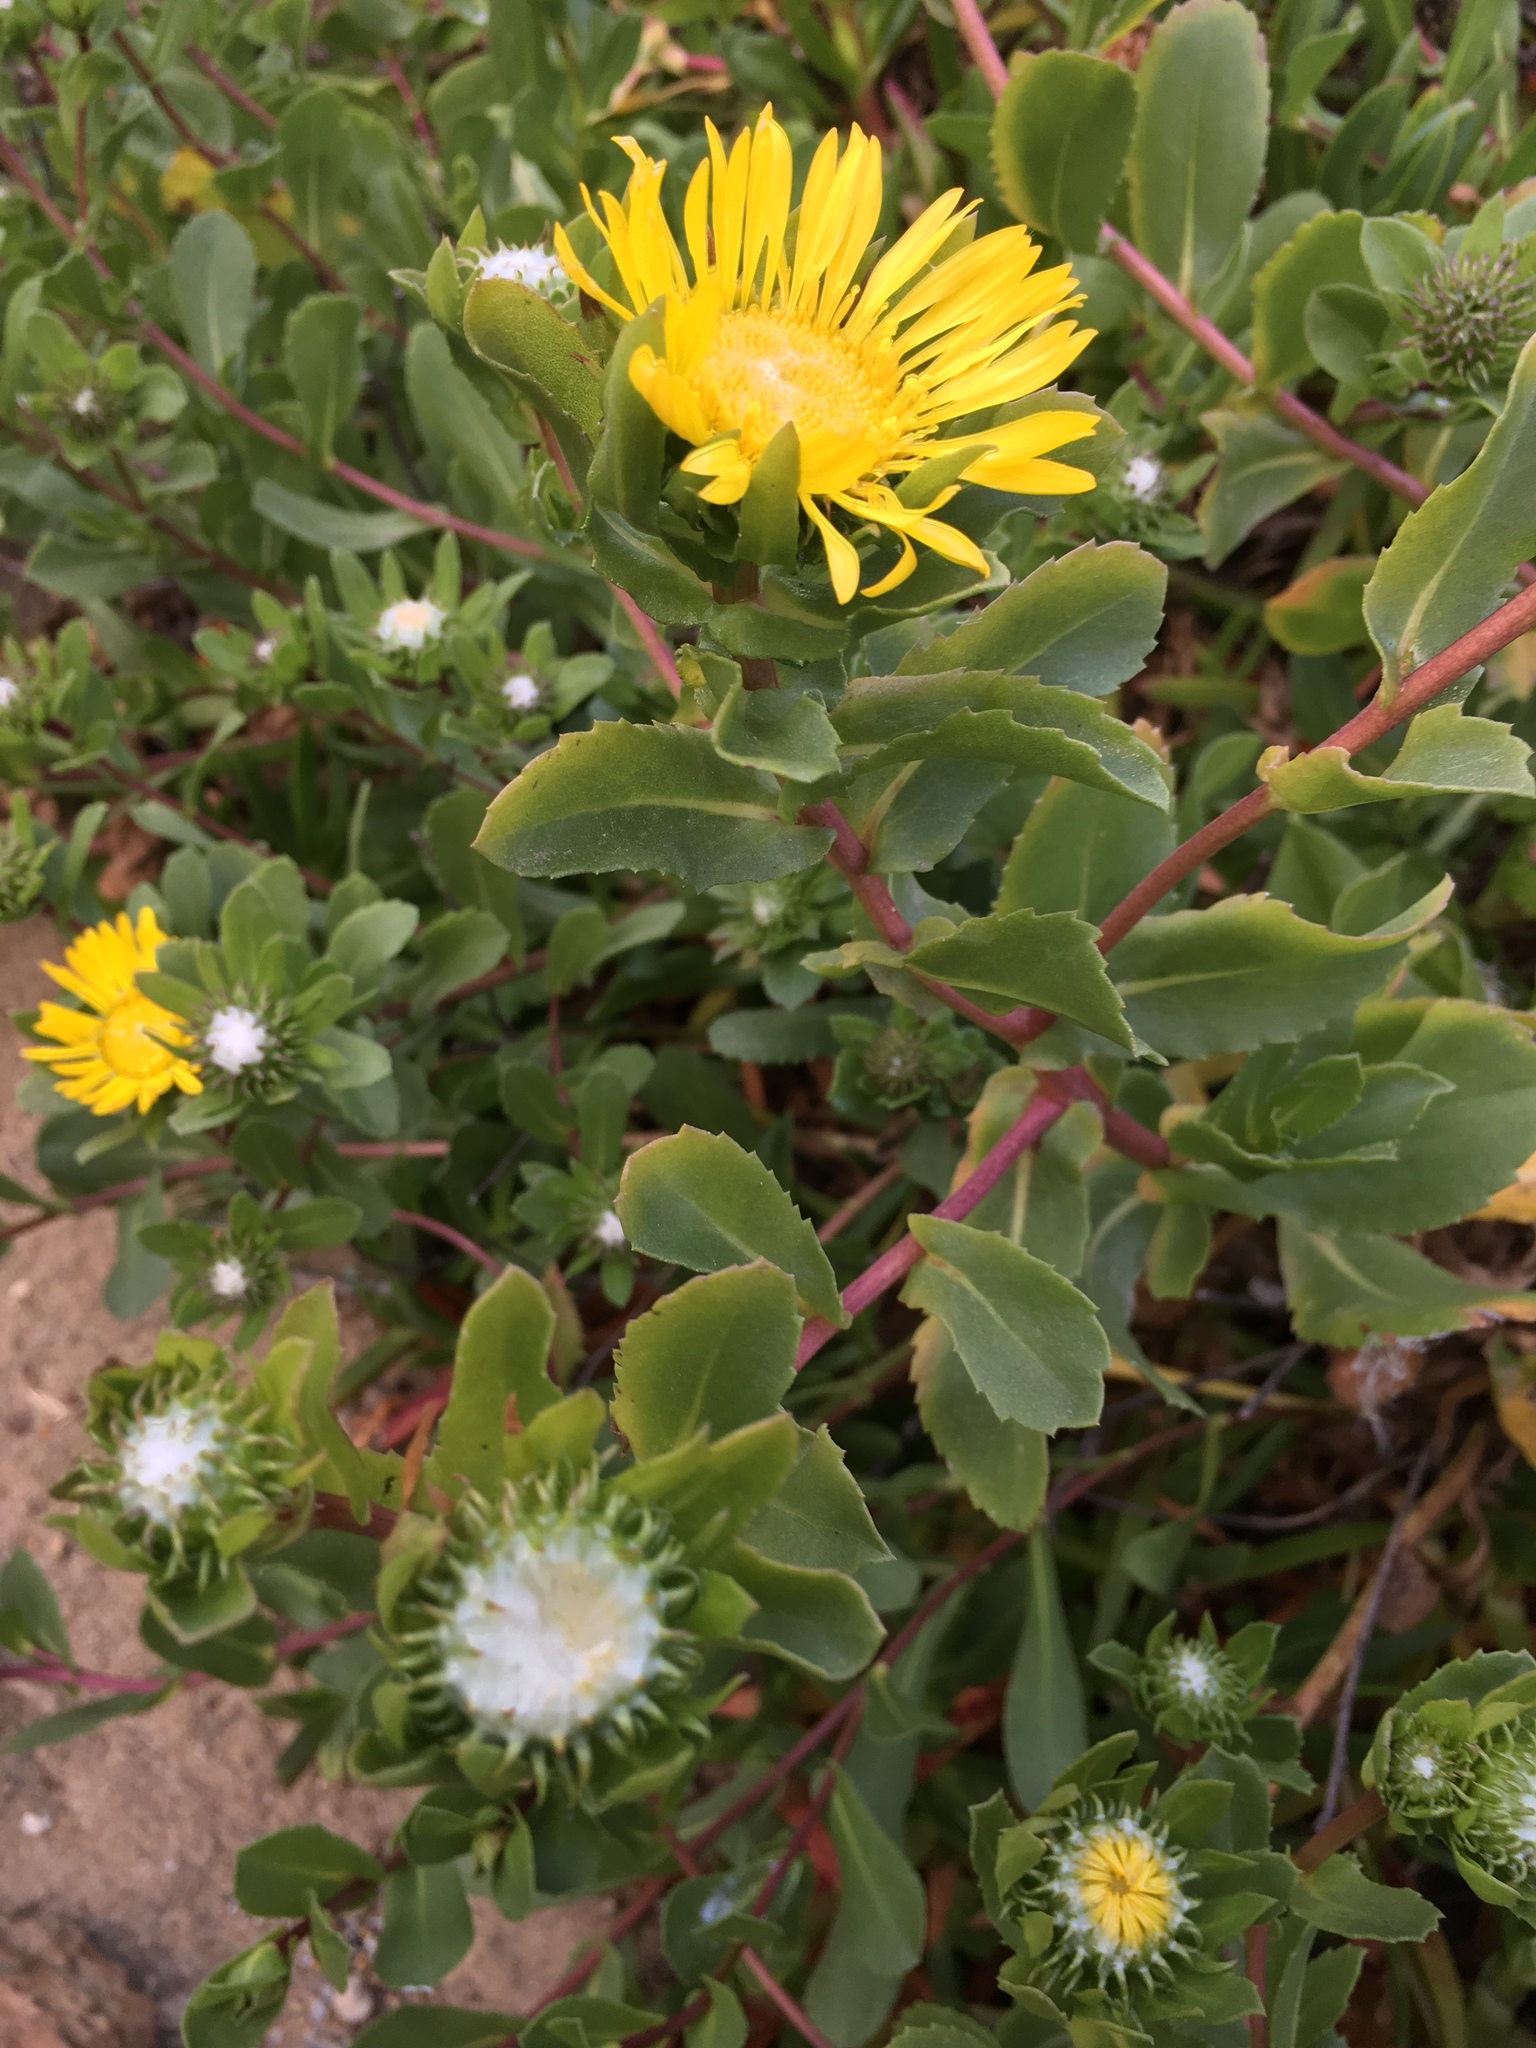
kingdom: Plantae
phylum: Tracheophyta
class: Magnoliopsida
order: Asterales
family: Asteraceae
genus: Grindelia
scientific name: Grindelia hirsutula
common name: Hairy gumweed
